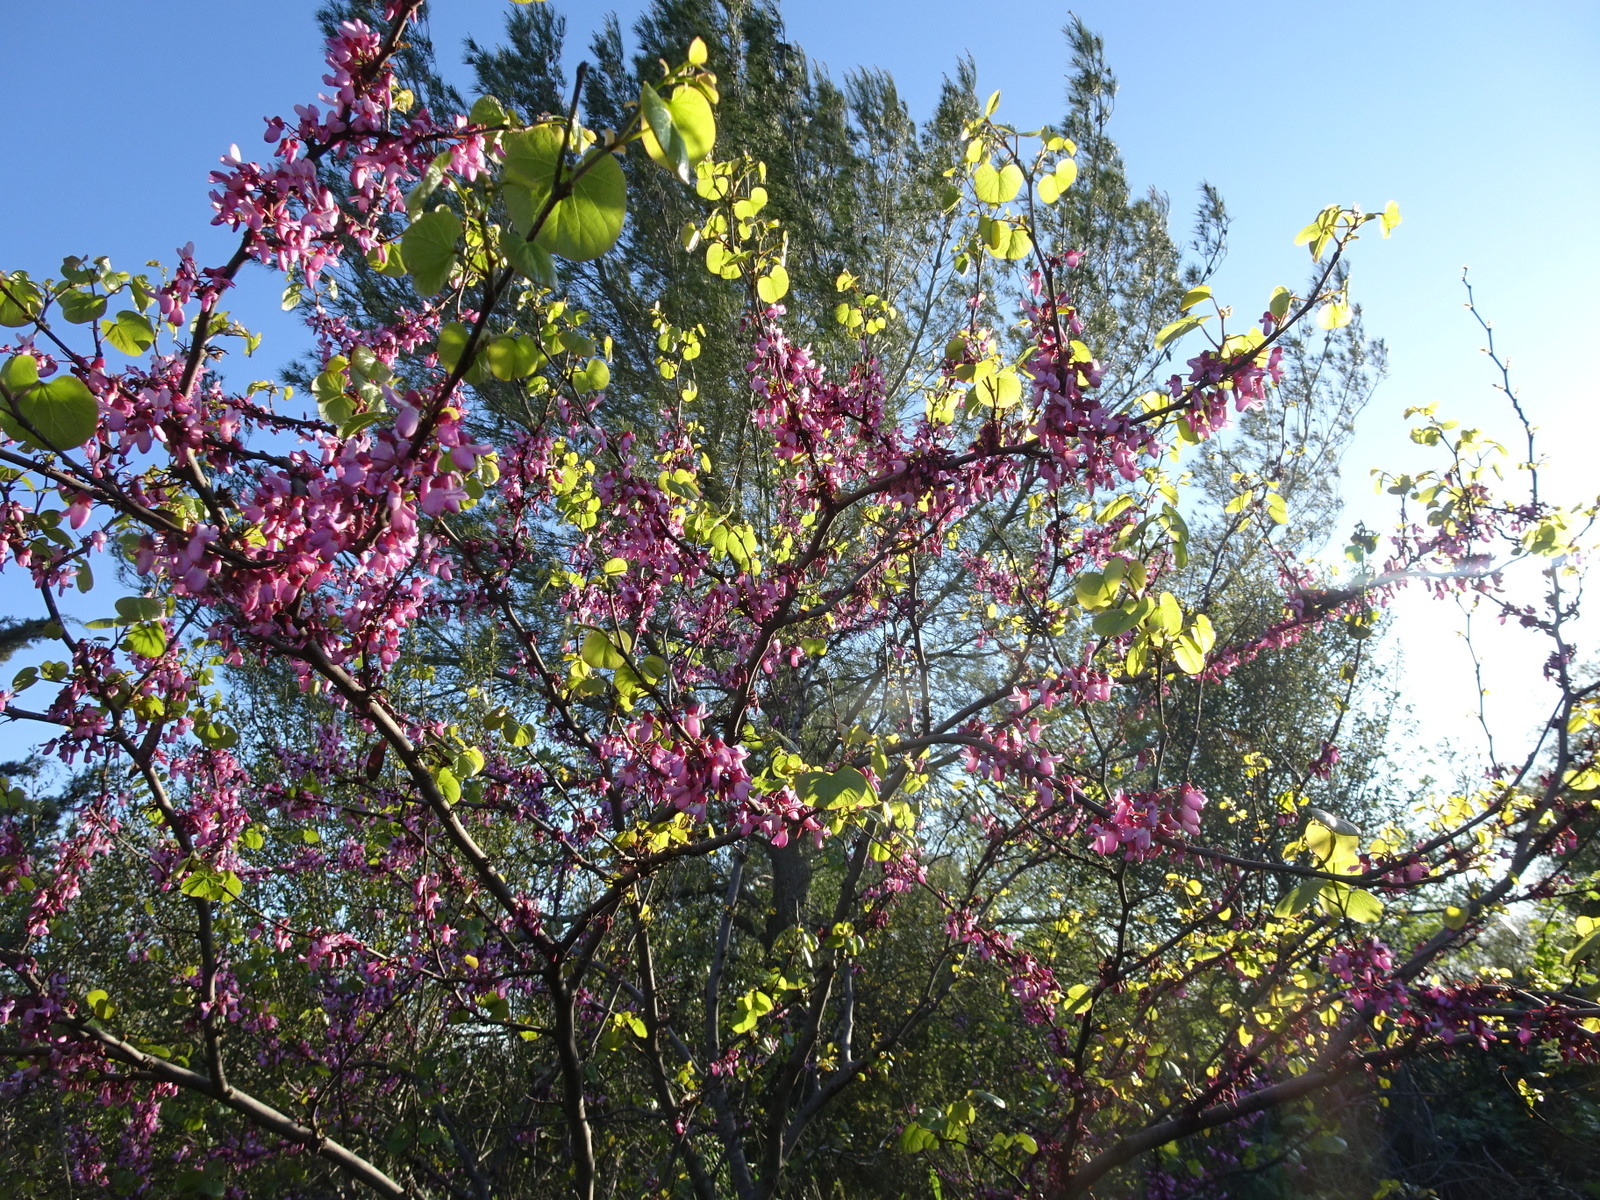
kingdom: Plantae
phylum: Tracheophyta
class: Magnoliopsida
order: Fabales
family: Fabaceae
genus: Cercis
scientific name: Cercis siliquastrum
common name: Judas tree
